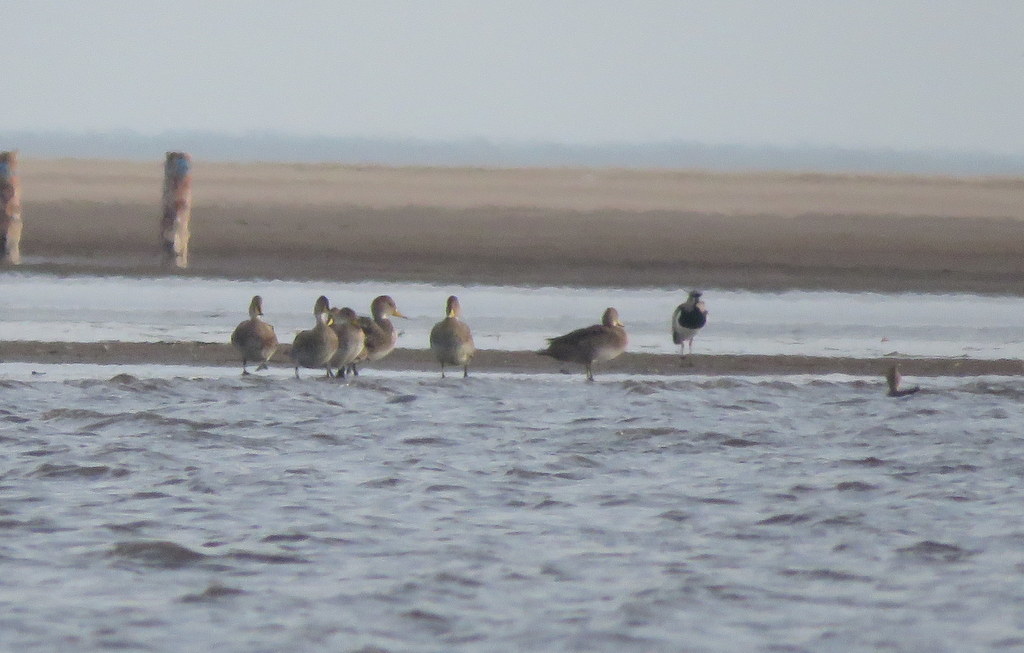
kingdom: Animalia
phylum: Chordata
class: Aves
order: Anseriformes
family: Anatidae
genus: Anas
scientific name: Anas georgica
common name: Yellow-billed pintail
